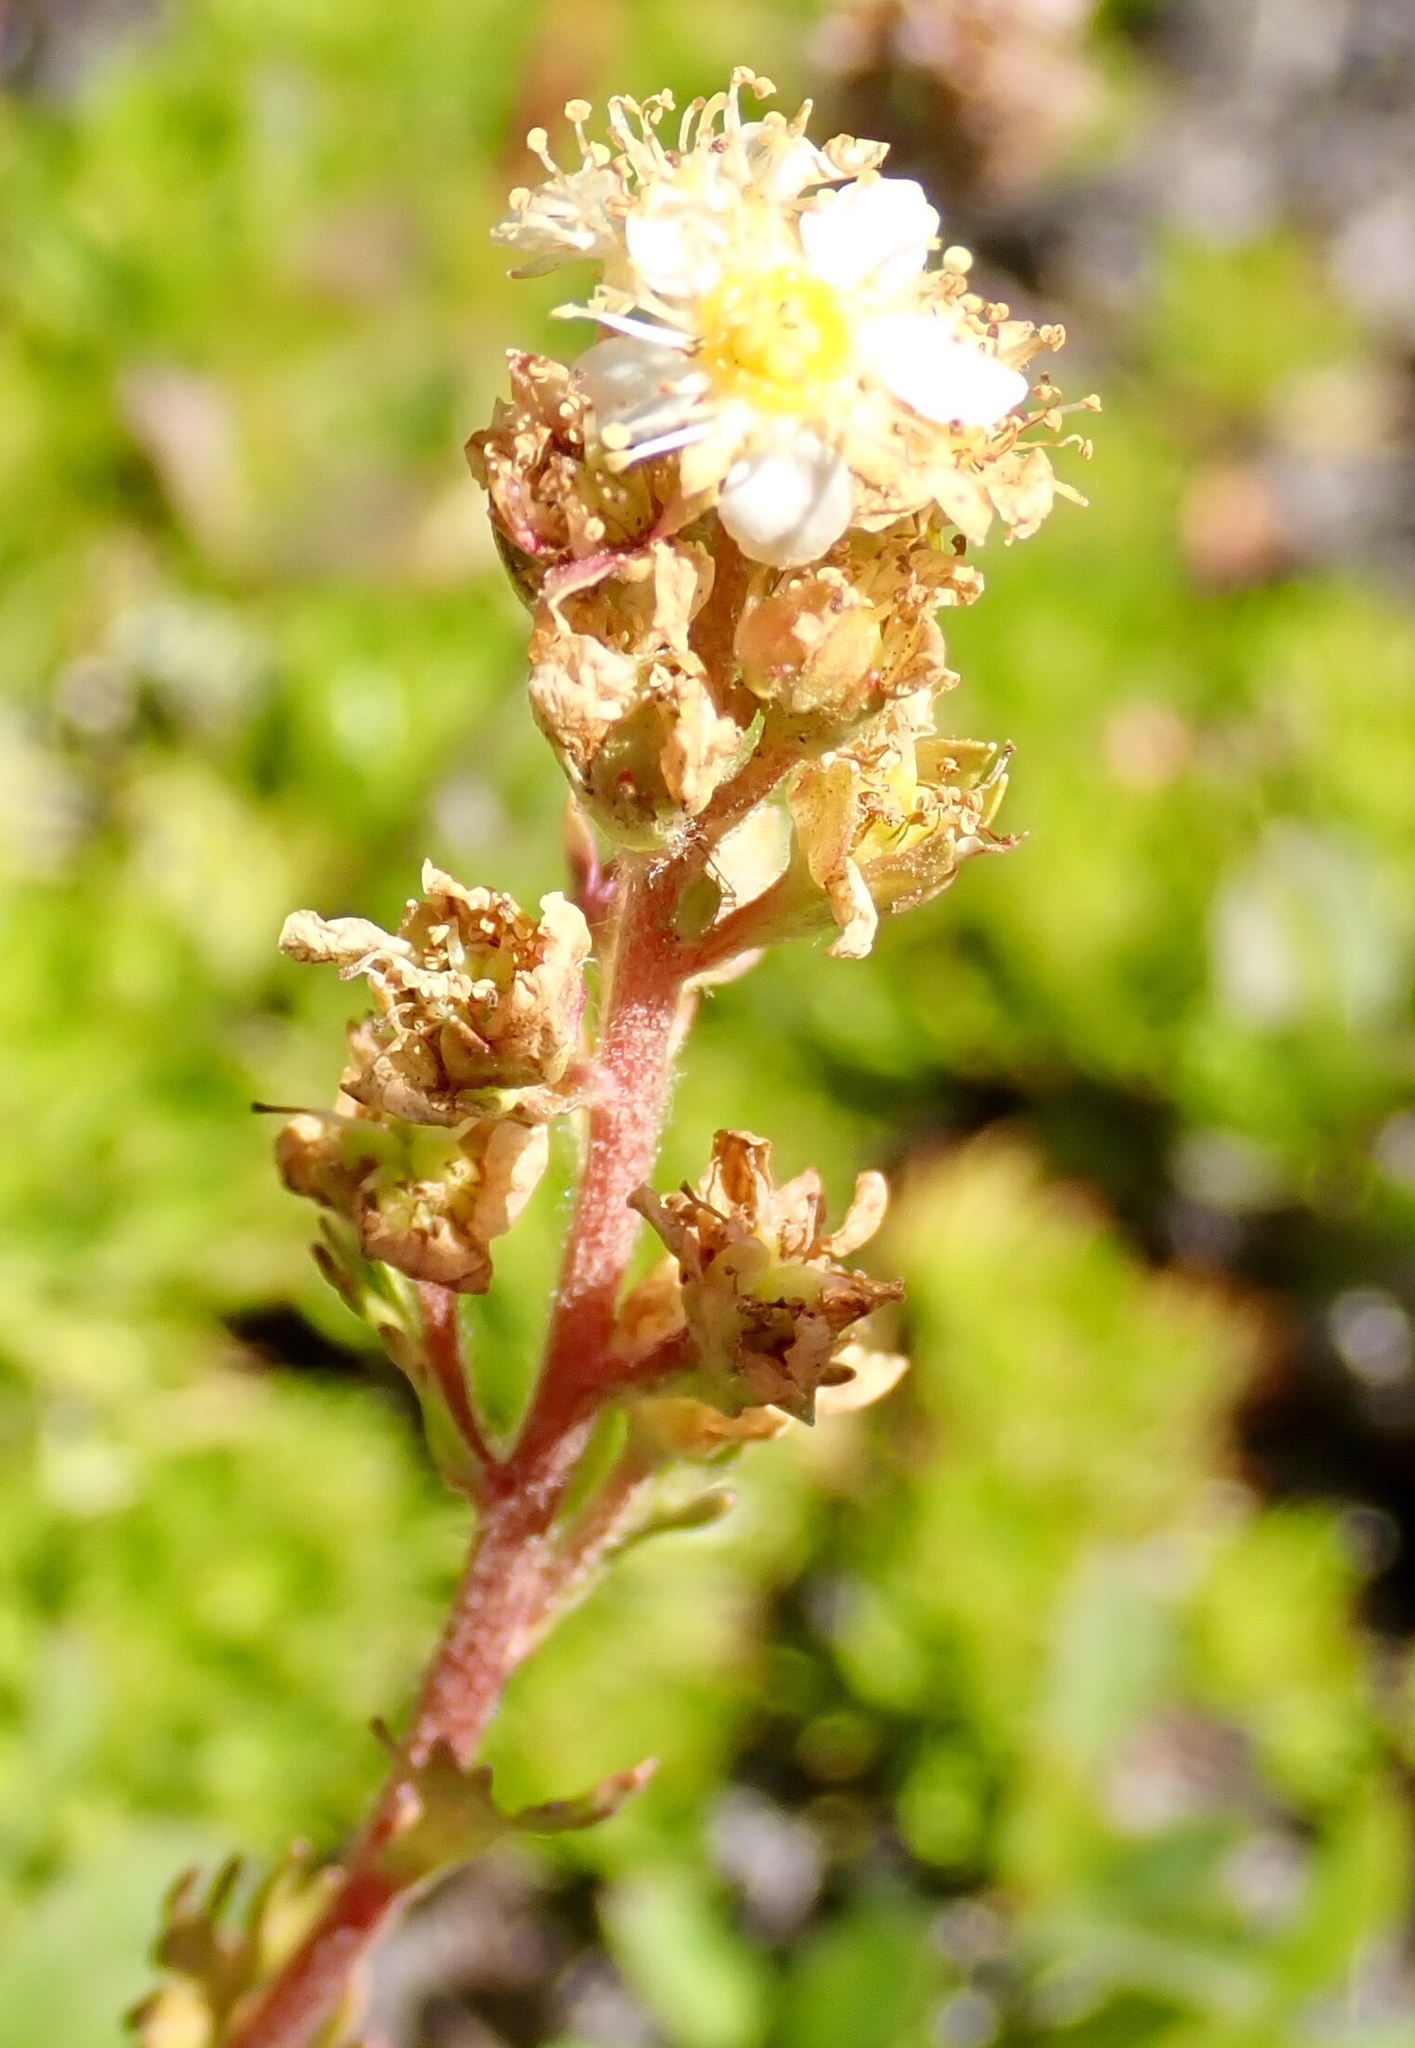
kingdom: Plantae
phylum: Tracheophyta
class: Magnoliopsida
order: Rosales
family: Rosaceae
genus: Luetkea
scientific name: Luetkea pectinata
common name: Partridgefoot
